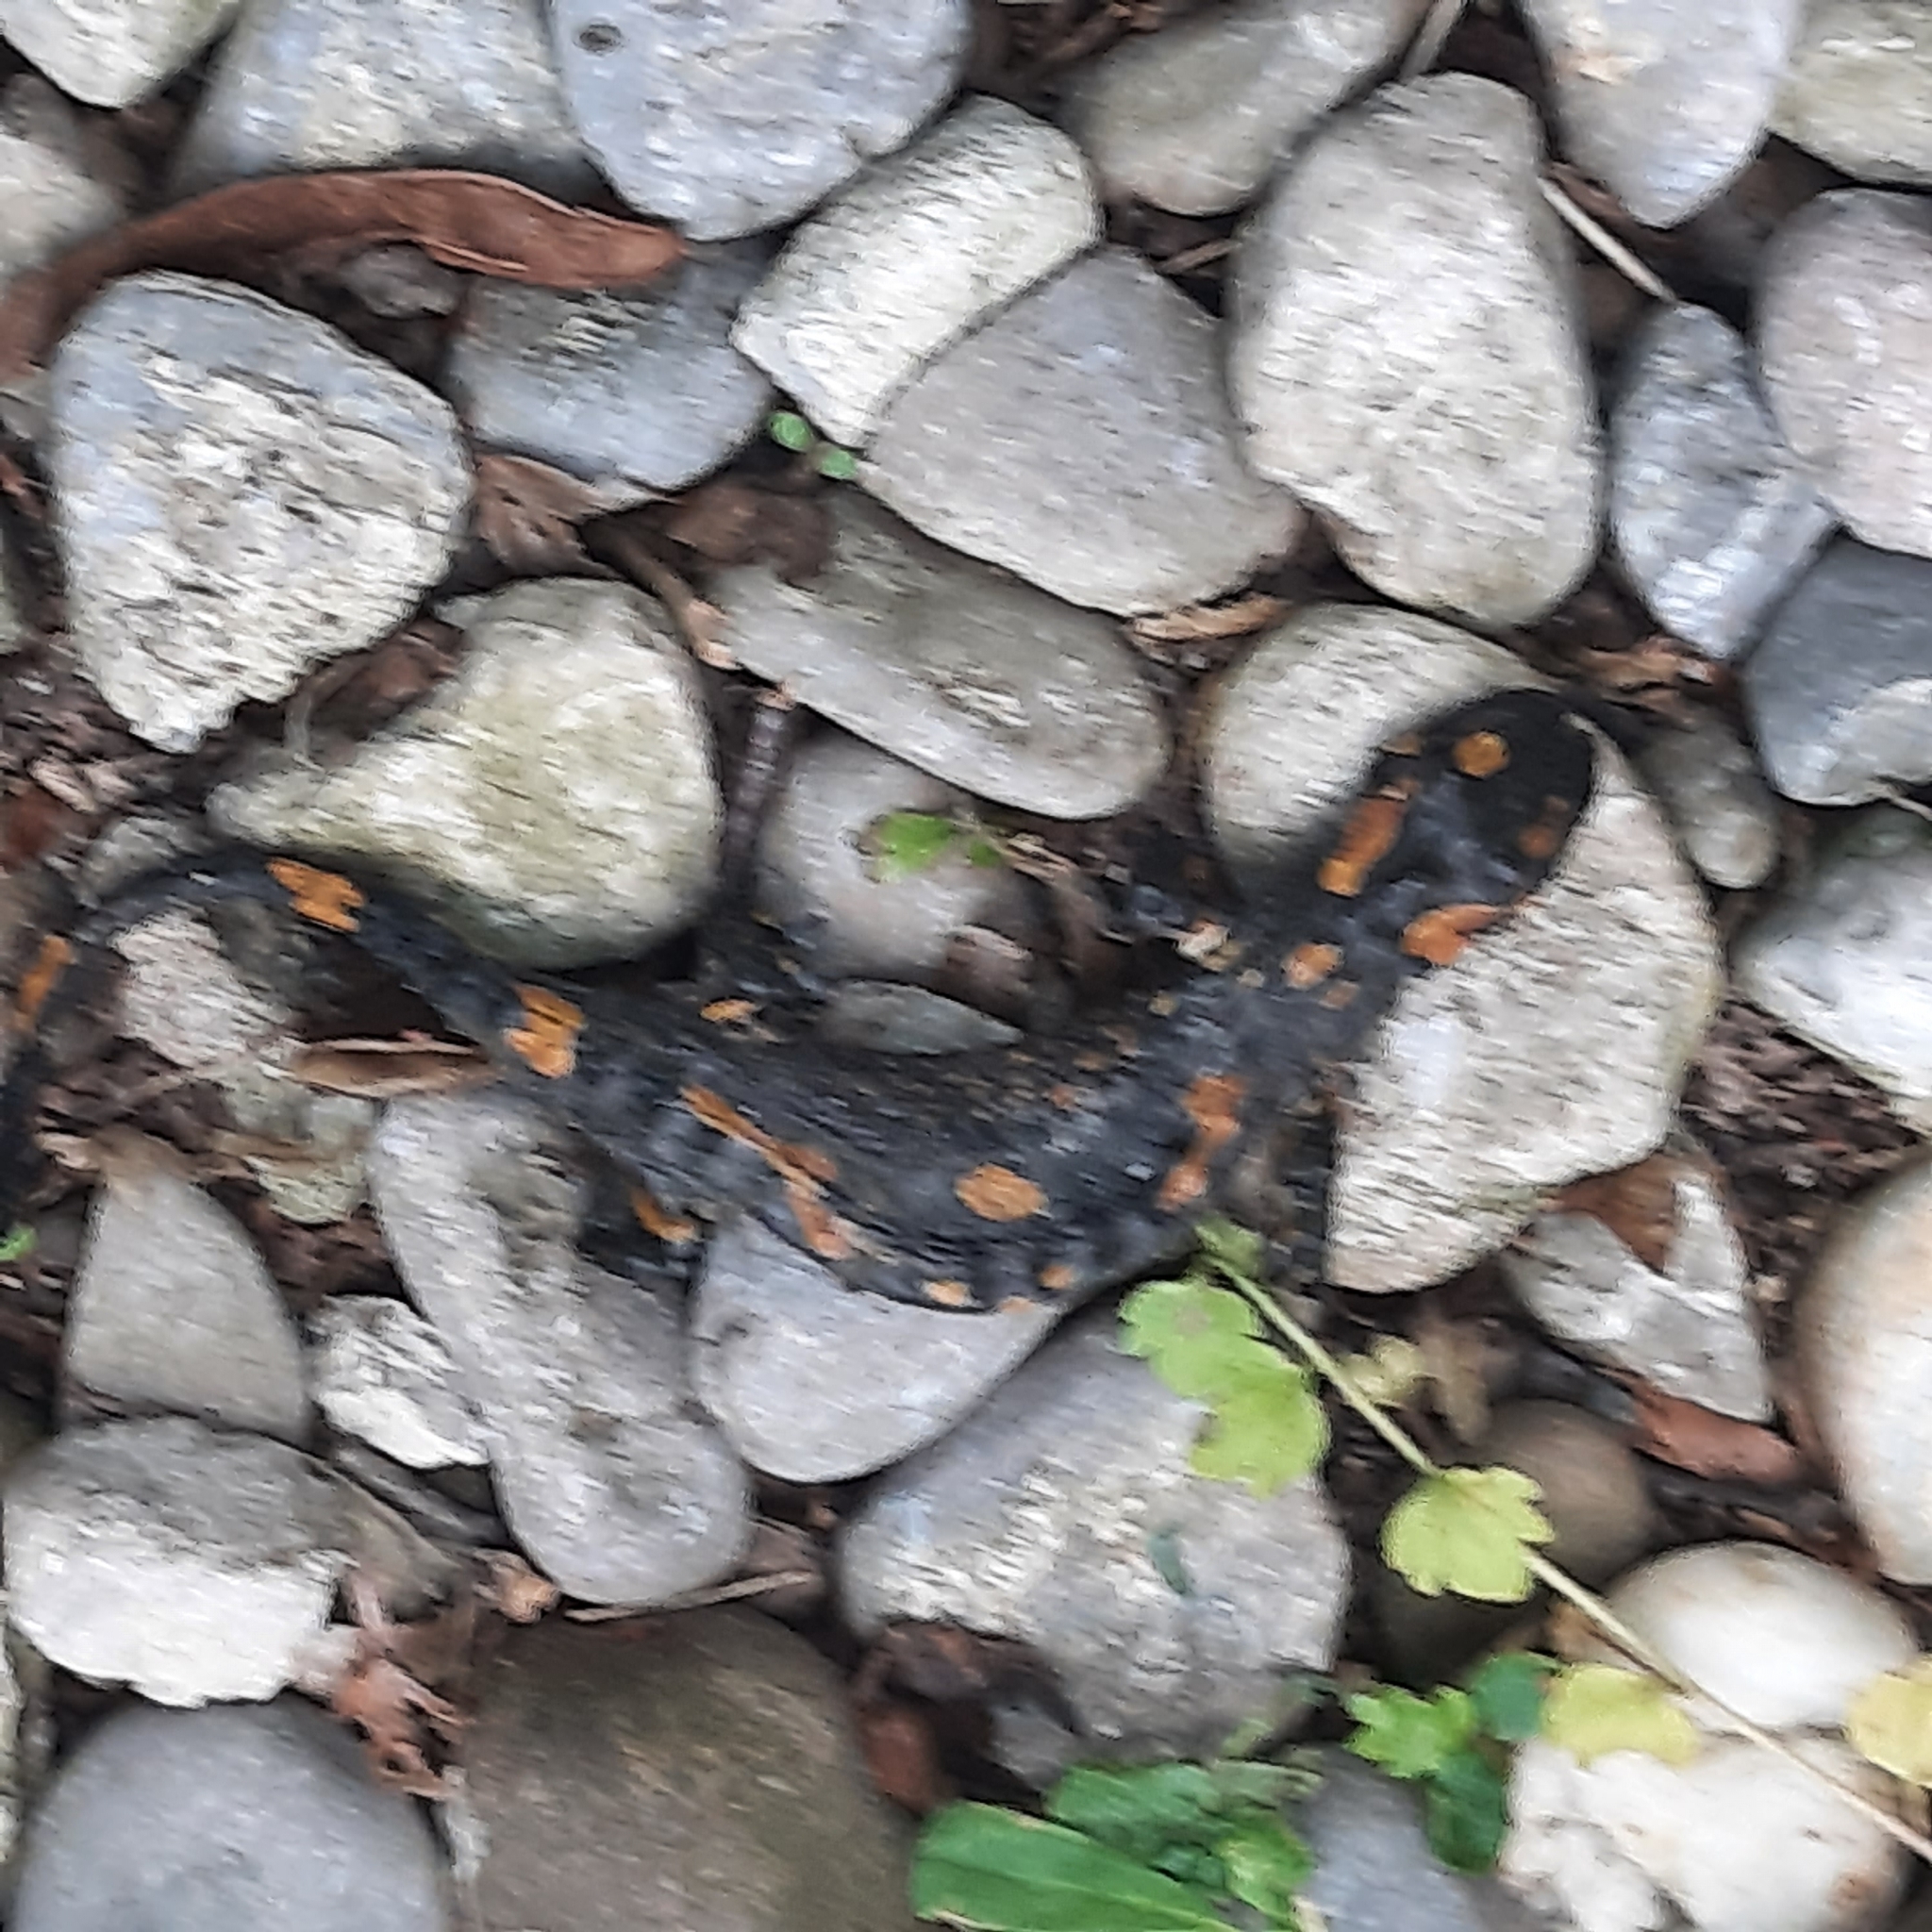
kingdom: Animalia
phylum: Chordata
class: Amphibia
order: Caudata
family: Salamandridae
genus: Salamandra
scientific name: Salamandra salamandra
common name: Fire salamander
